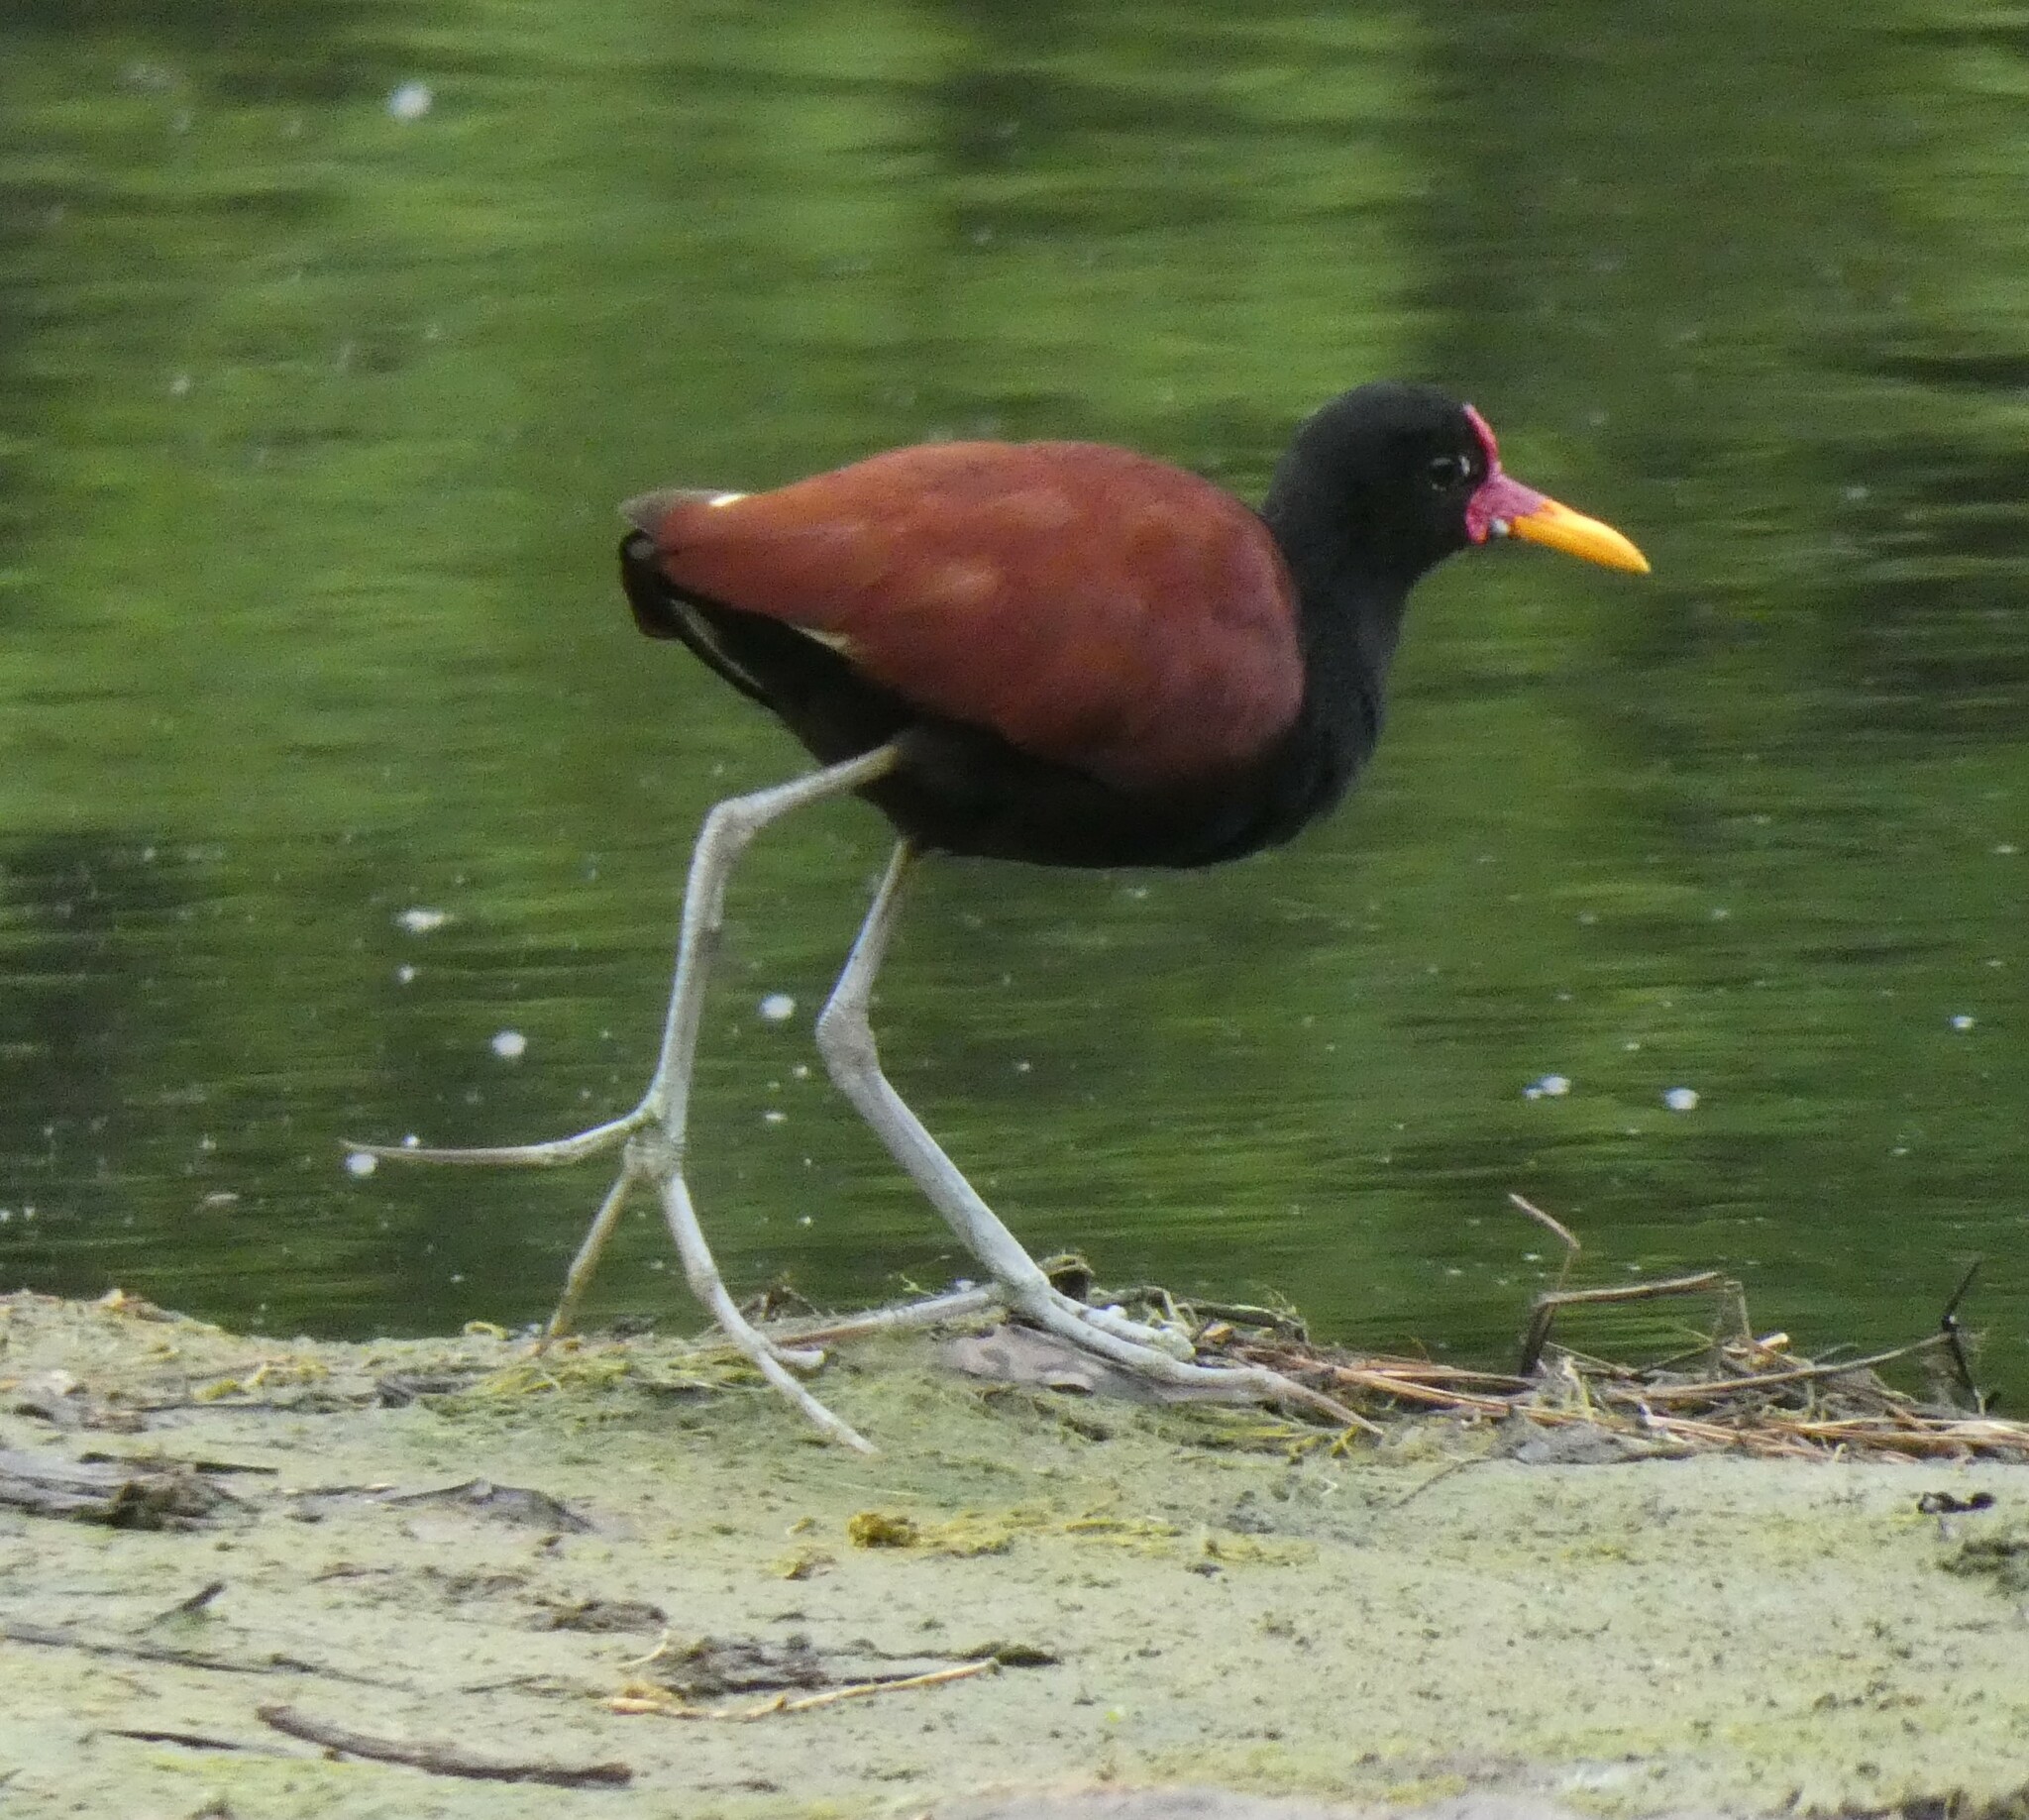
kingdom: Animalia
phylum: Chordata
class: Aves
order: Charadriiformes
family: Jacanidae
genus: Jacana
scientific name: Jacana jacana
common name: Wattled jacana
